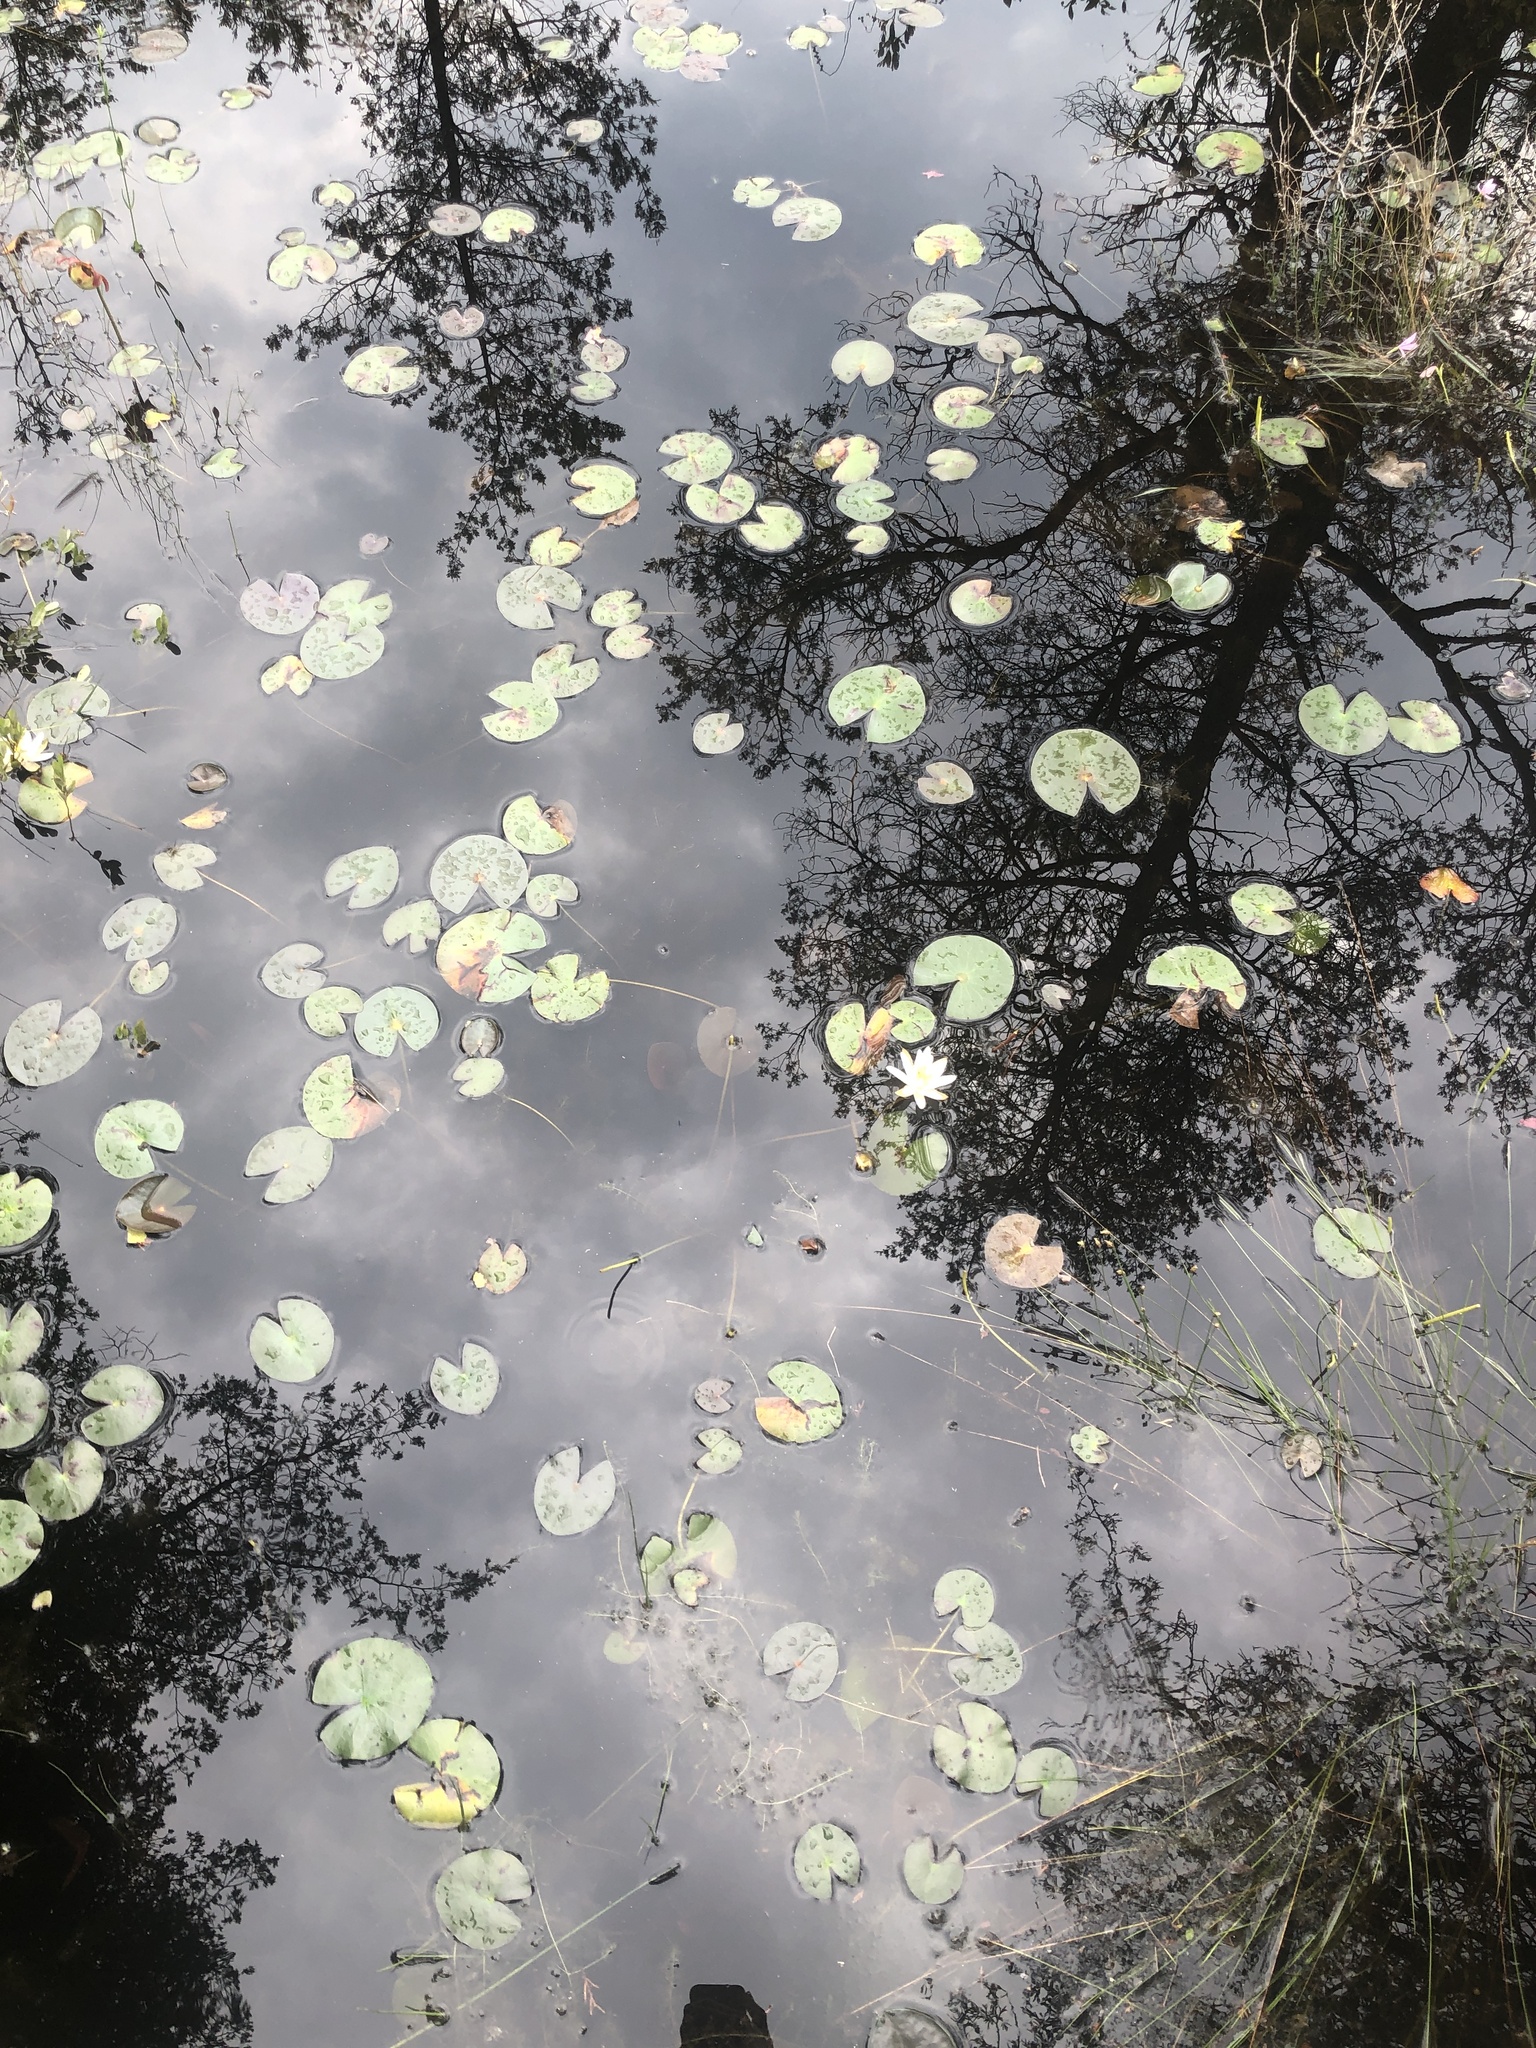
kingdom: Plantae
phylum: Tracheophyta
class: Magnoliopsida
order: Nymphaeales
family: Nymphaeaceae
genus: Nymphaea
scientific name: Nymphaea odorata
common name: Fragrant water-lily
